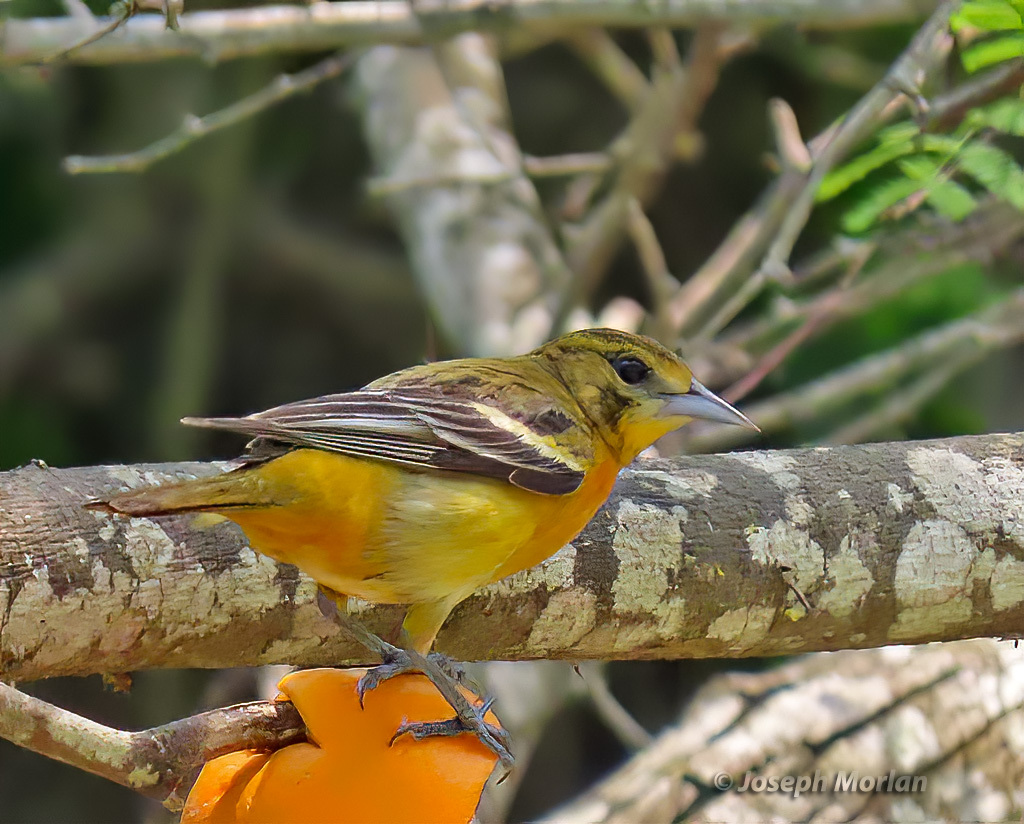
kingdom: Animalia
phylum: Chordata
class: Aves
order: Passeriformes
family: Icteridae
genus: Icterus
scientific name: Icterus galbula
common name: Baltimore oriole
